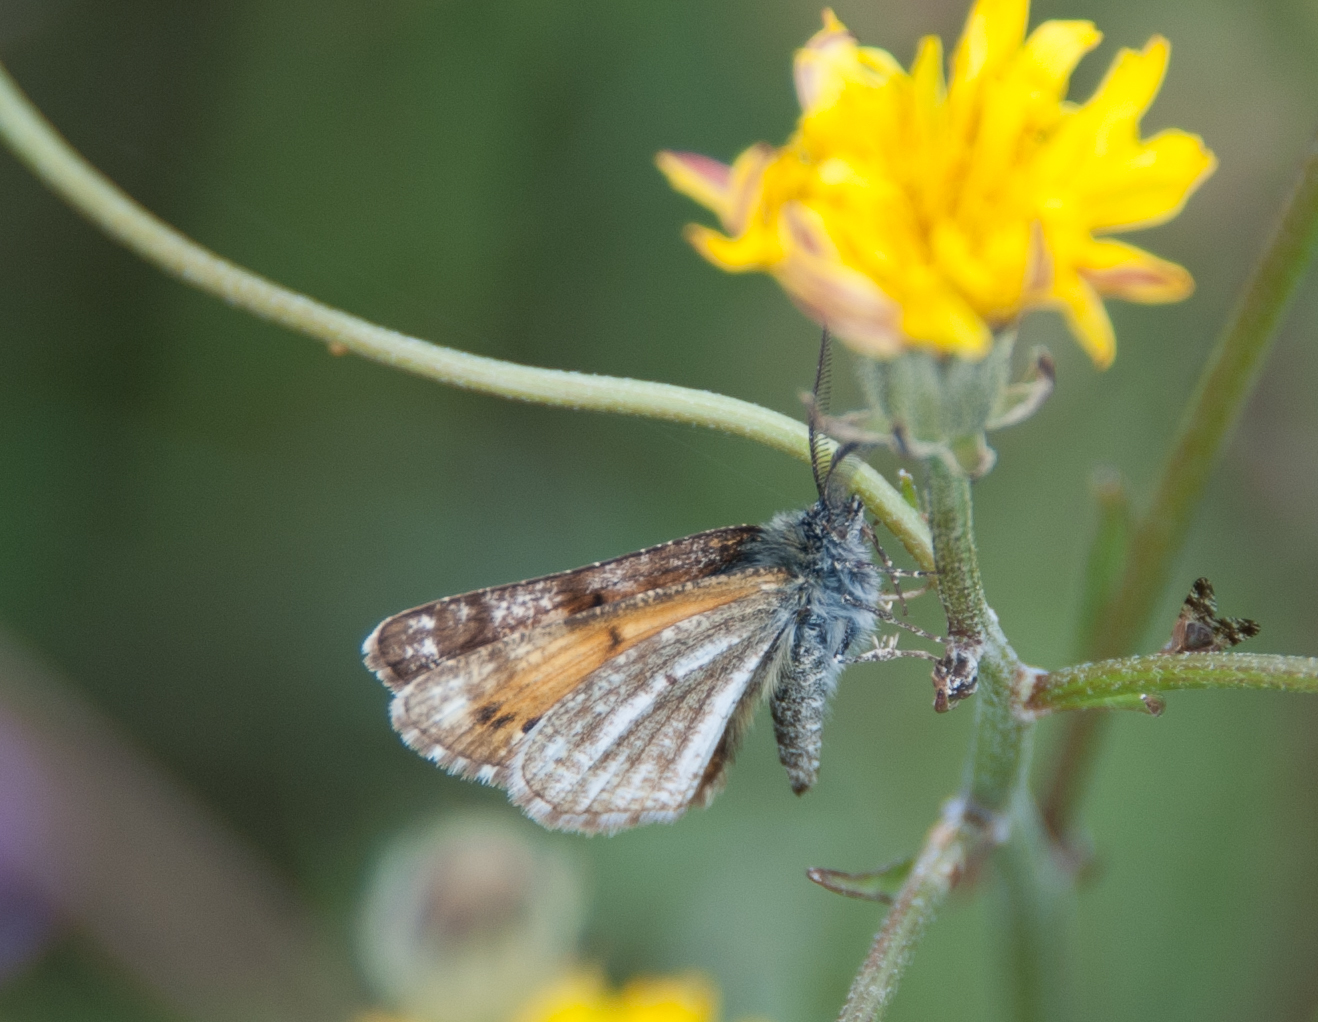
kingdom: Animalia
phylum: Arthropoda
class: Insecta
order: Lepidoptera
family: Geometridae
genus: Isturgia
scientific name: Isturgia famula
